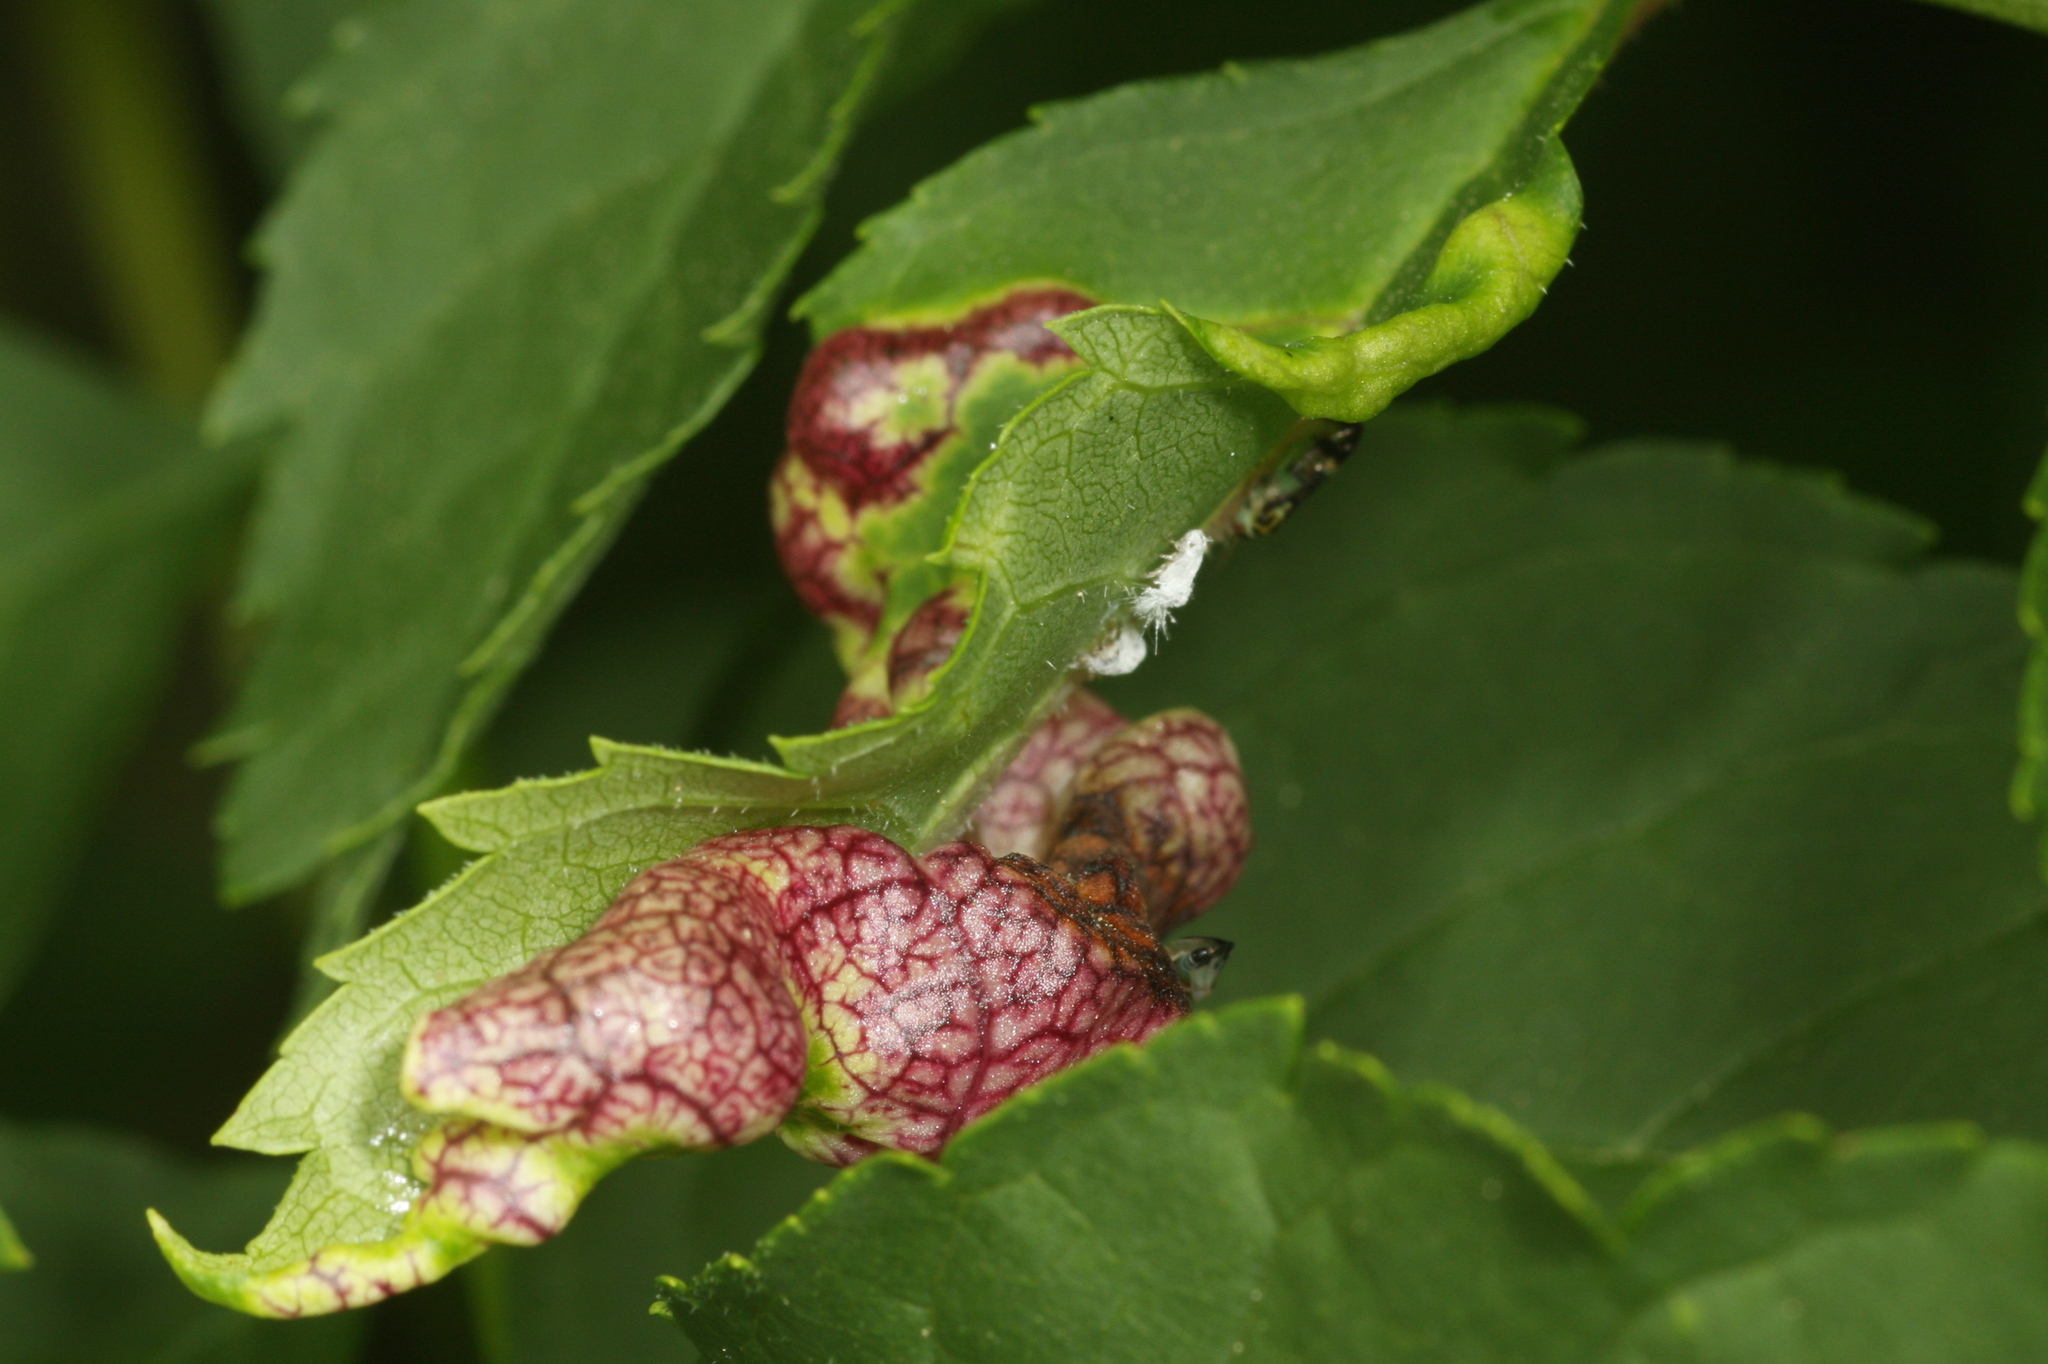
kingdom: Animalia
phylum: Arthropoda
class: Insecta
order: Hemiptera
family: Liviidae
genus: Psyllopsis
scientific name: Psyllopsis fraxini
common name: Jumping plant louse
